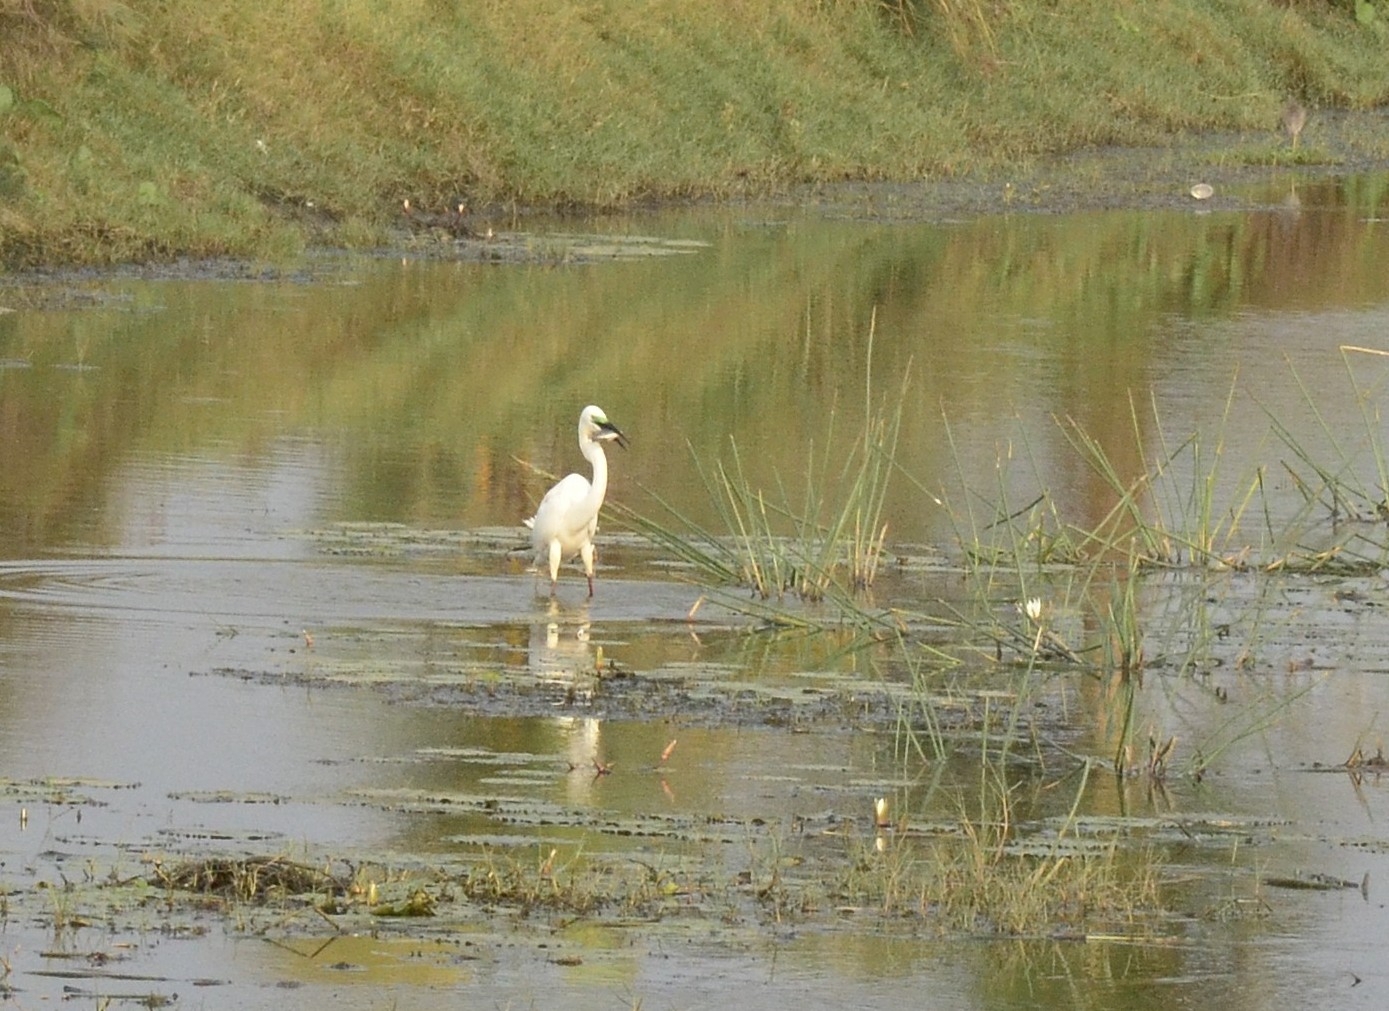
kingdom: Animalia
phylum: Chordata
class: Aves
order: Pelecaniformes
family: Ardeidae
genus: Ardea
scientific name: Ardea alba
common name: Great egret
